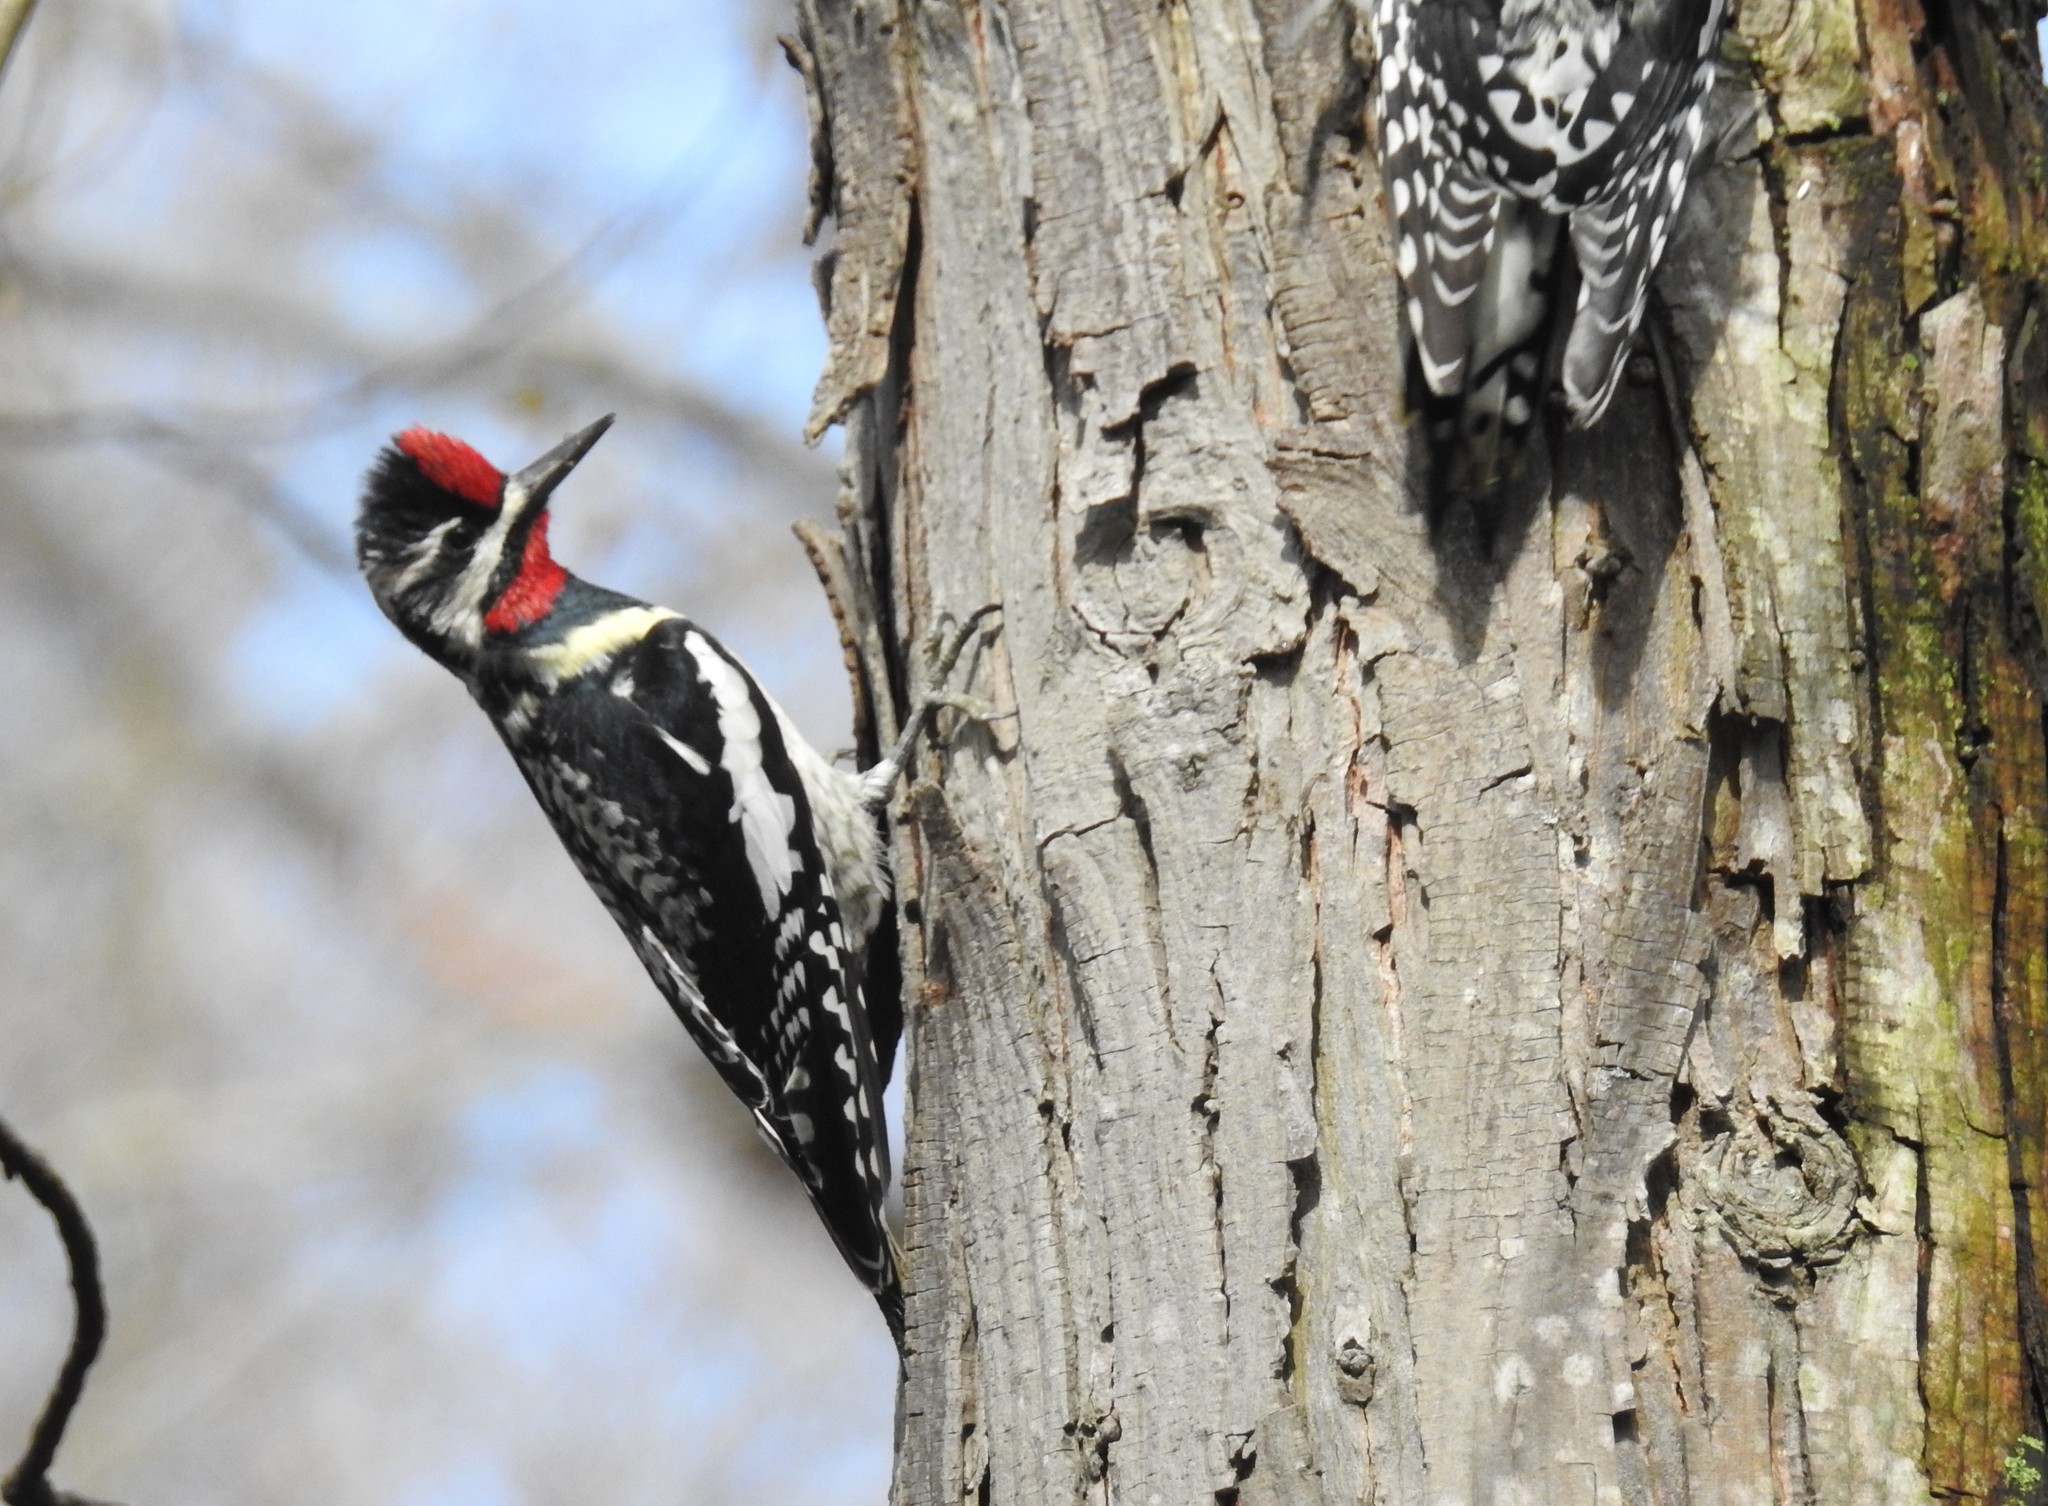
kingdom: Animalia
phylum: Chordata
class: Aves
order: Piciformes
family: Picidae
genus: Sphyrapicus
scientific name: Sphyrapicus varius
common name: Yellow-bellied sapsucker
